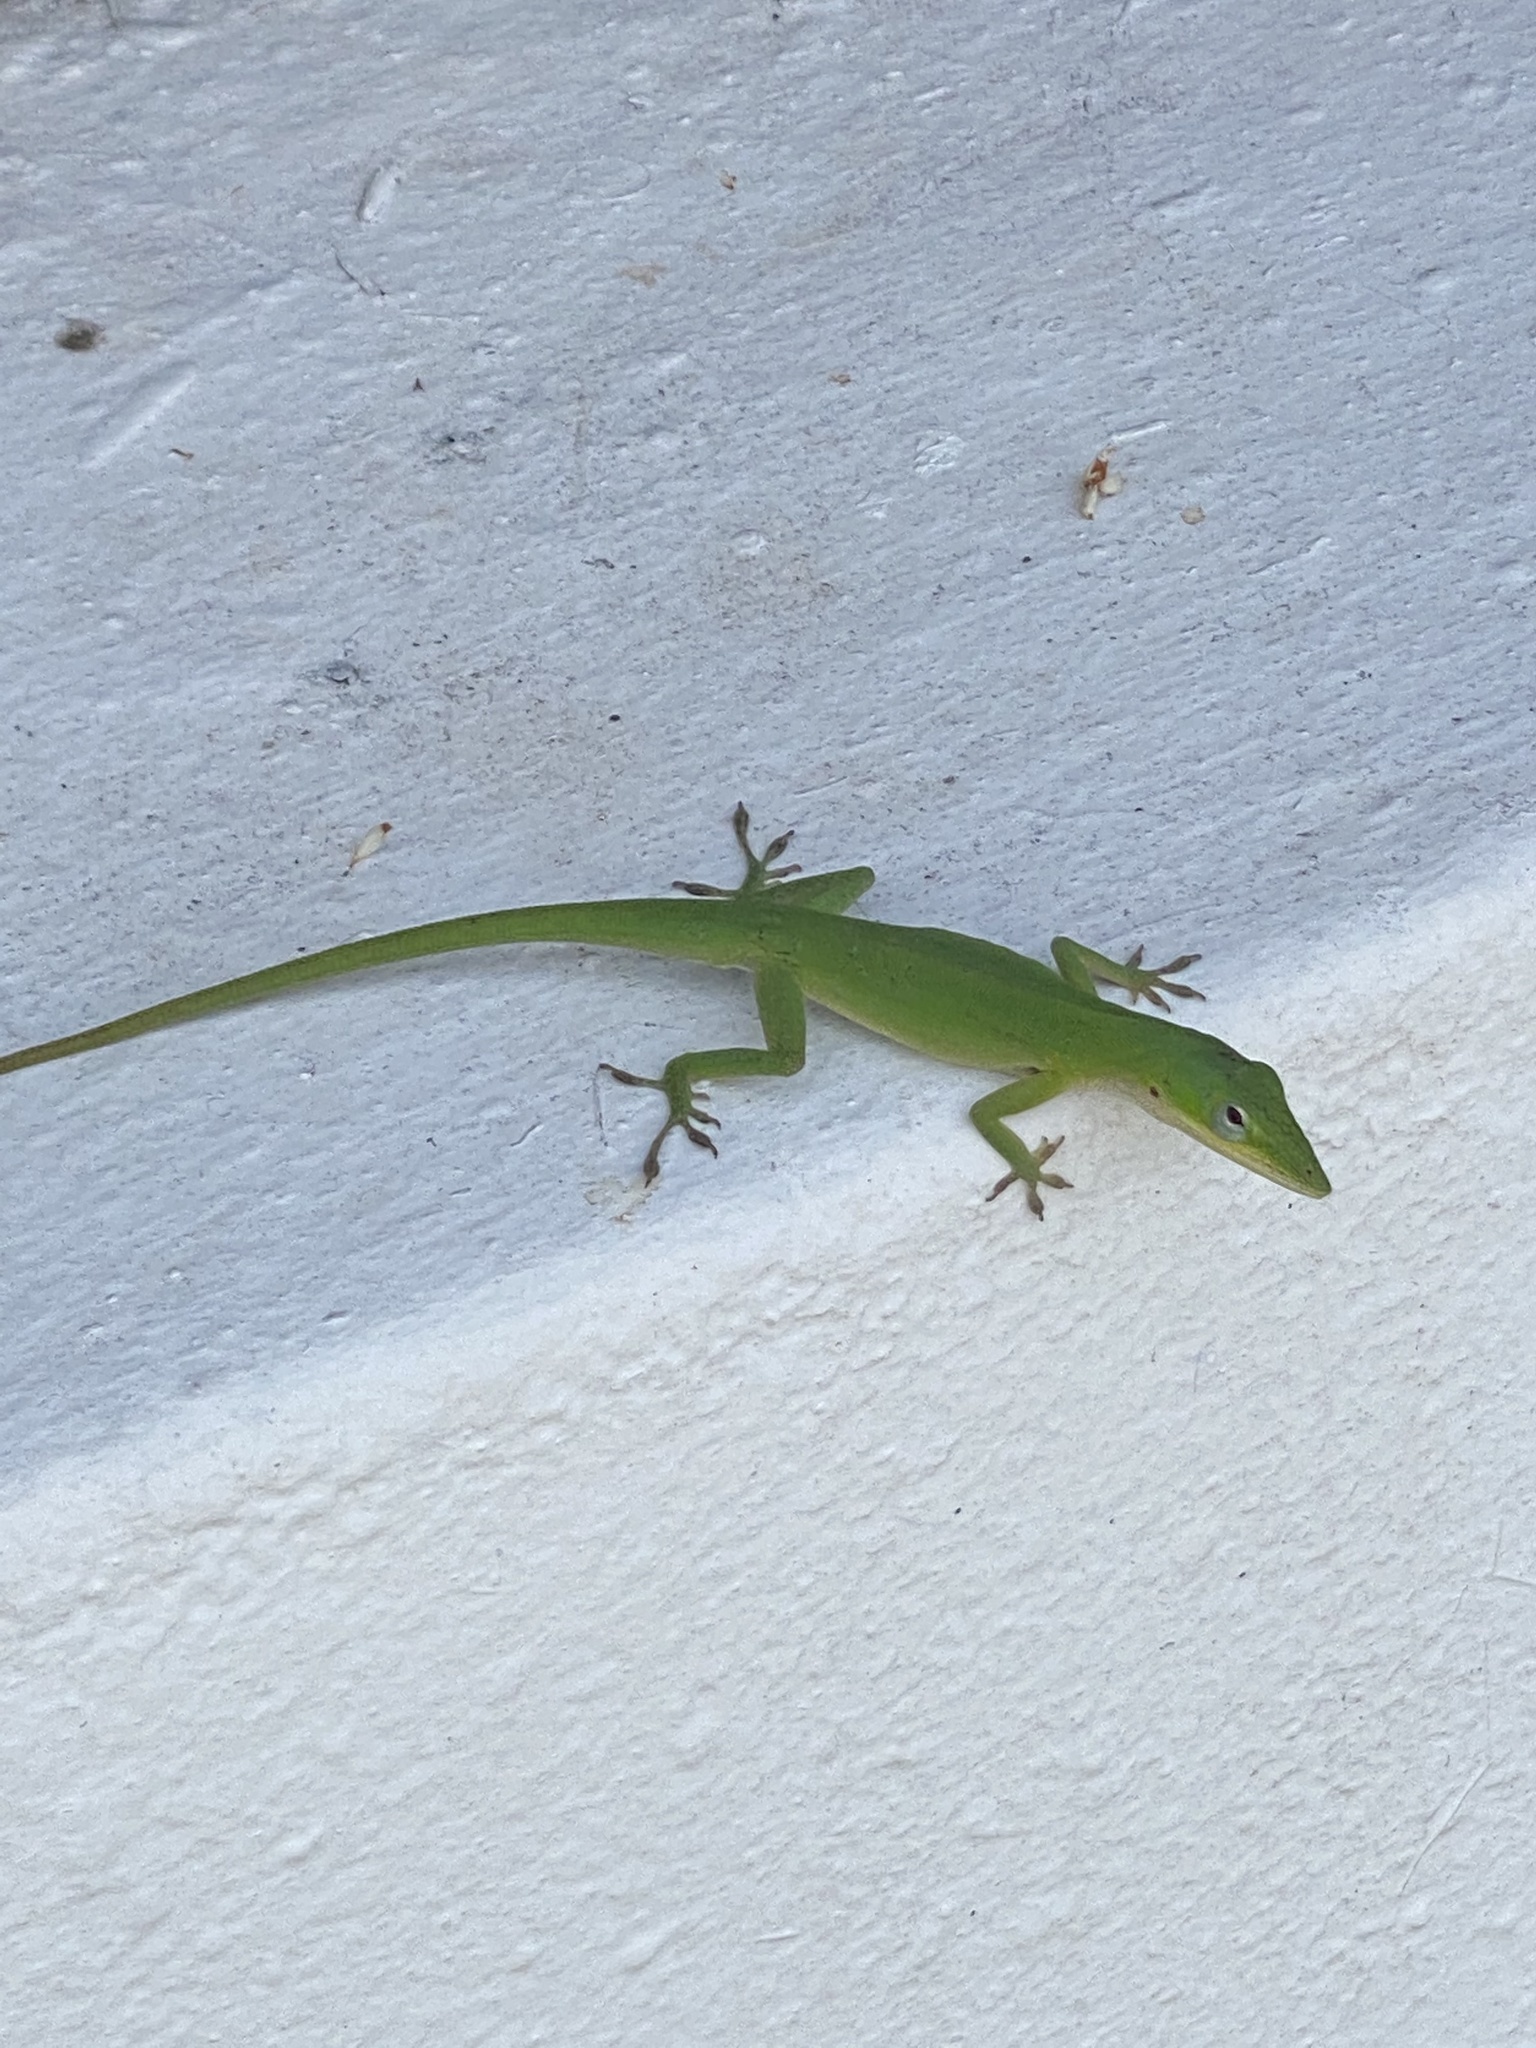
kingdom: Animalia
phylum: Chordata
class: Squamata
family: Dactyloidae
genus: Anolis
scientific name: Anolis carolinensis
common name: Green anole
